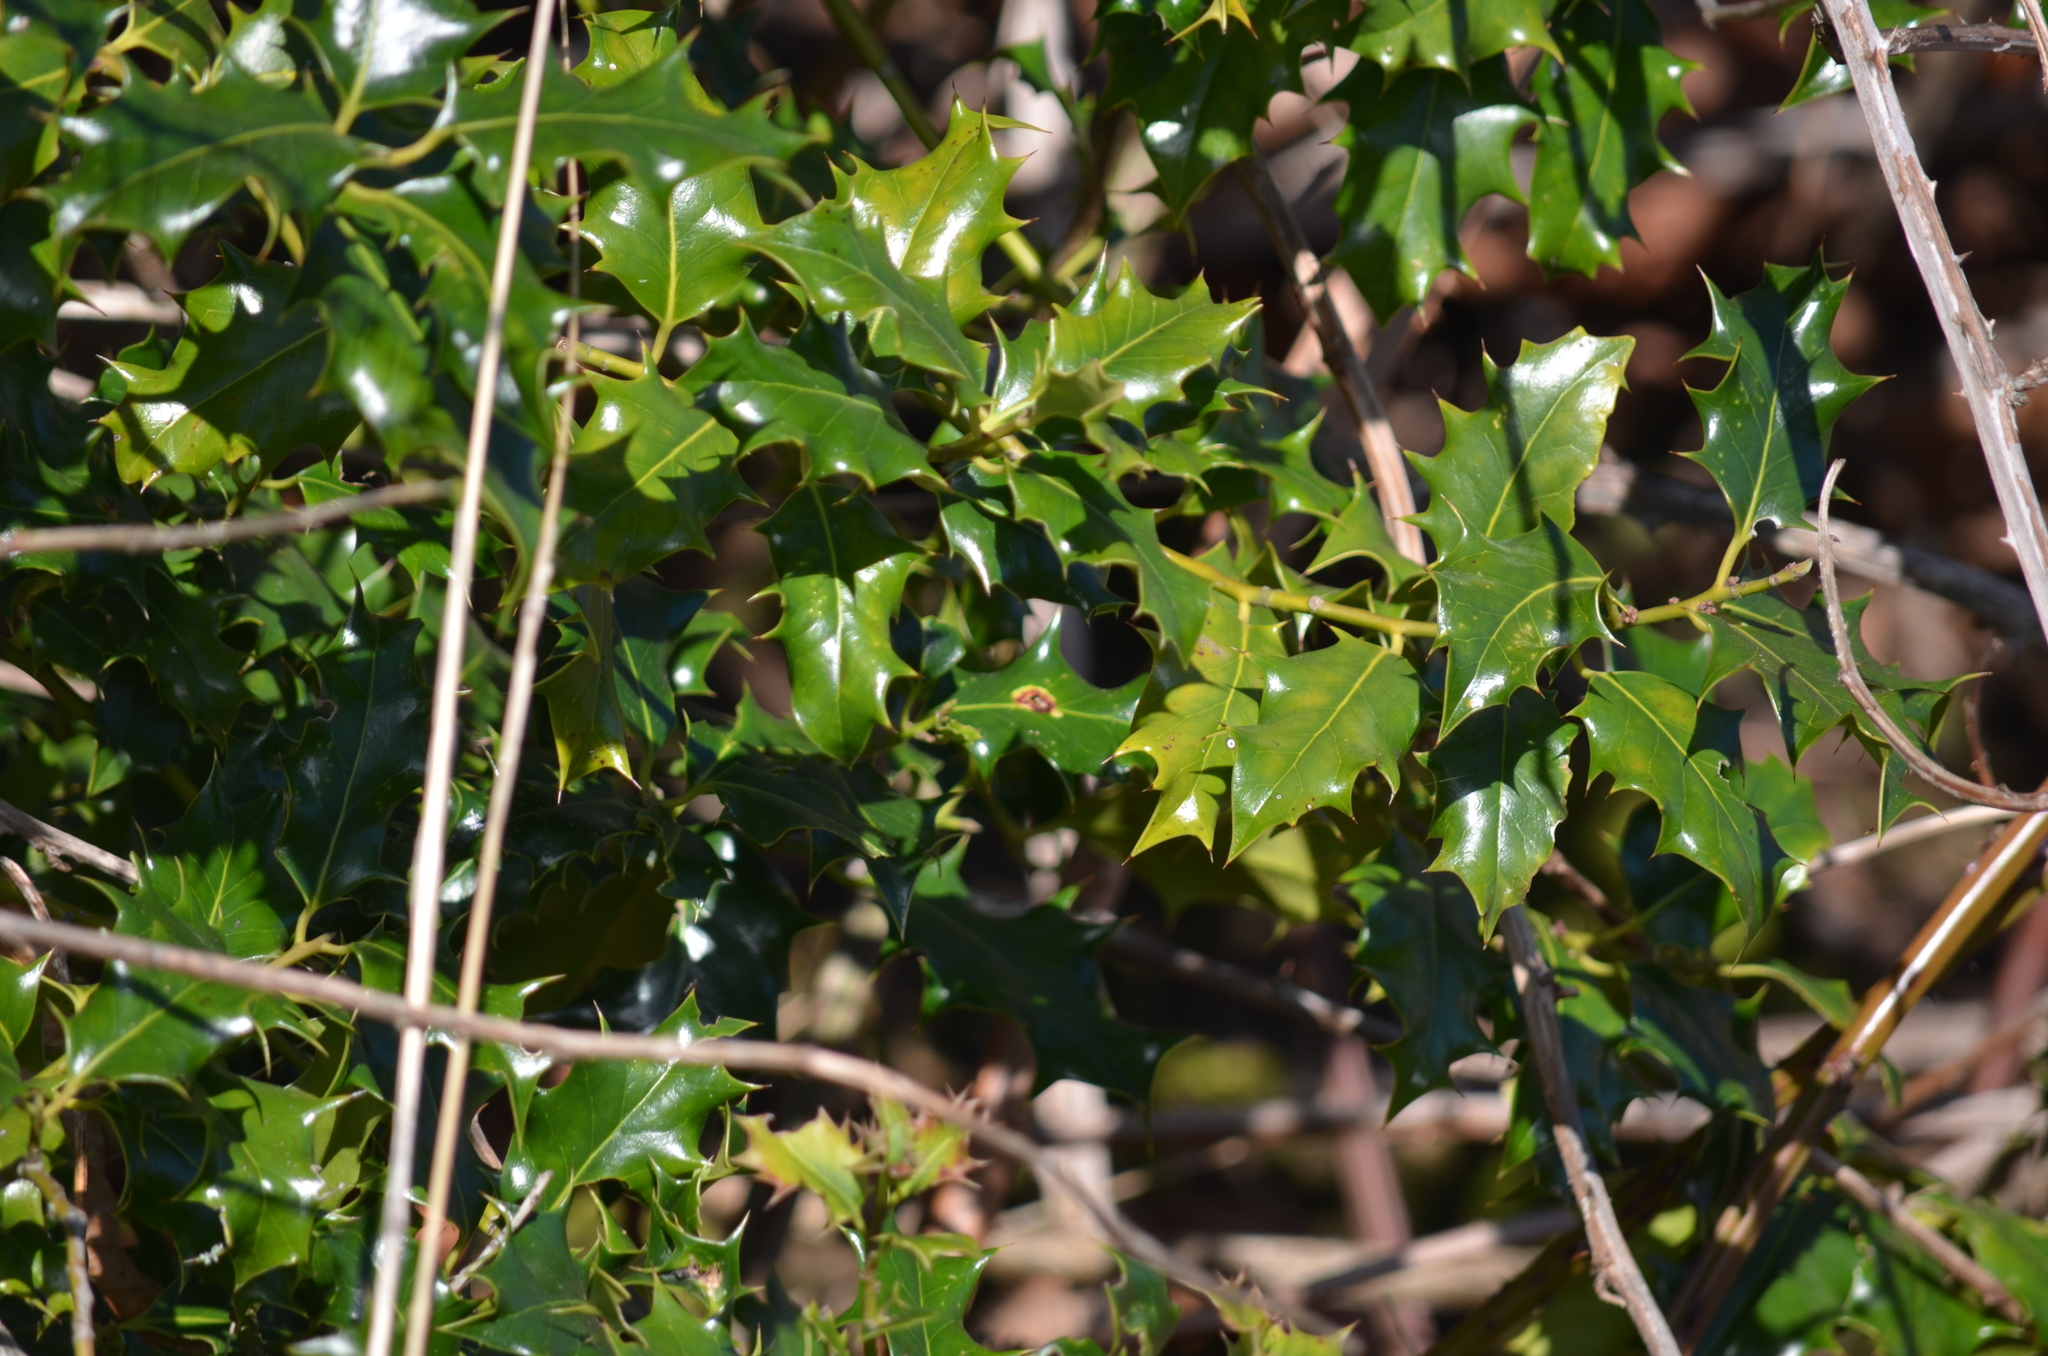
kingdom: Plantae
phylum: Tracheophyta
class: Magnoliopsida
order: Aquifoliales
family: Aquifoliaceae
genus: Ilex
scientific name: Ilex aquifolium
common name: English holly
